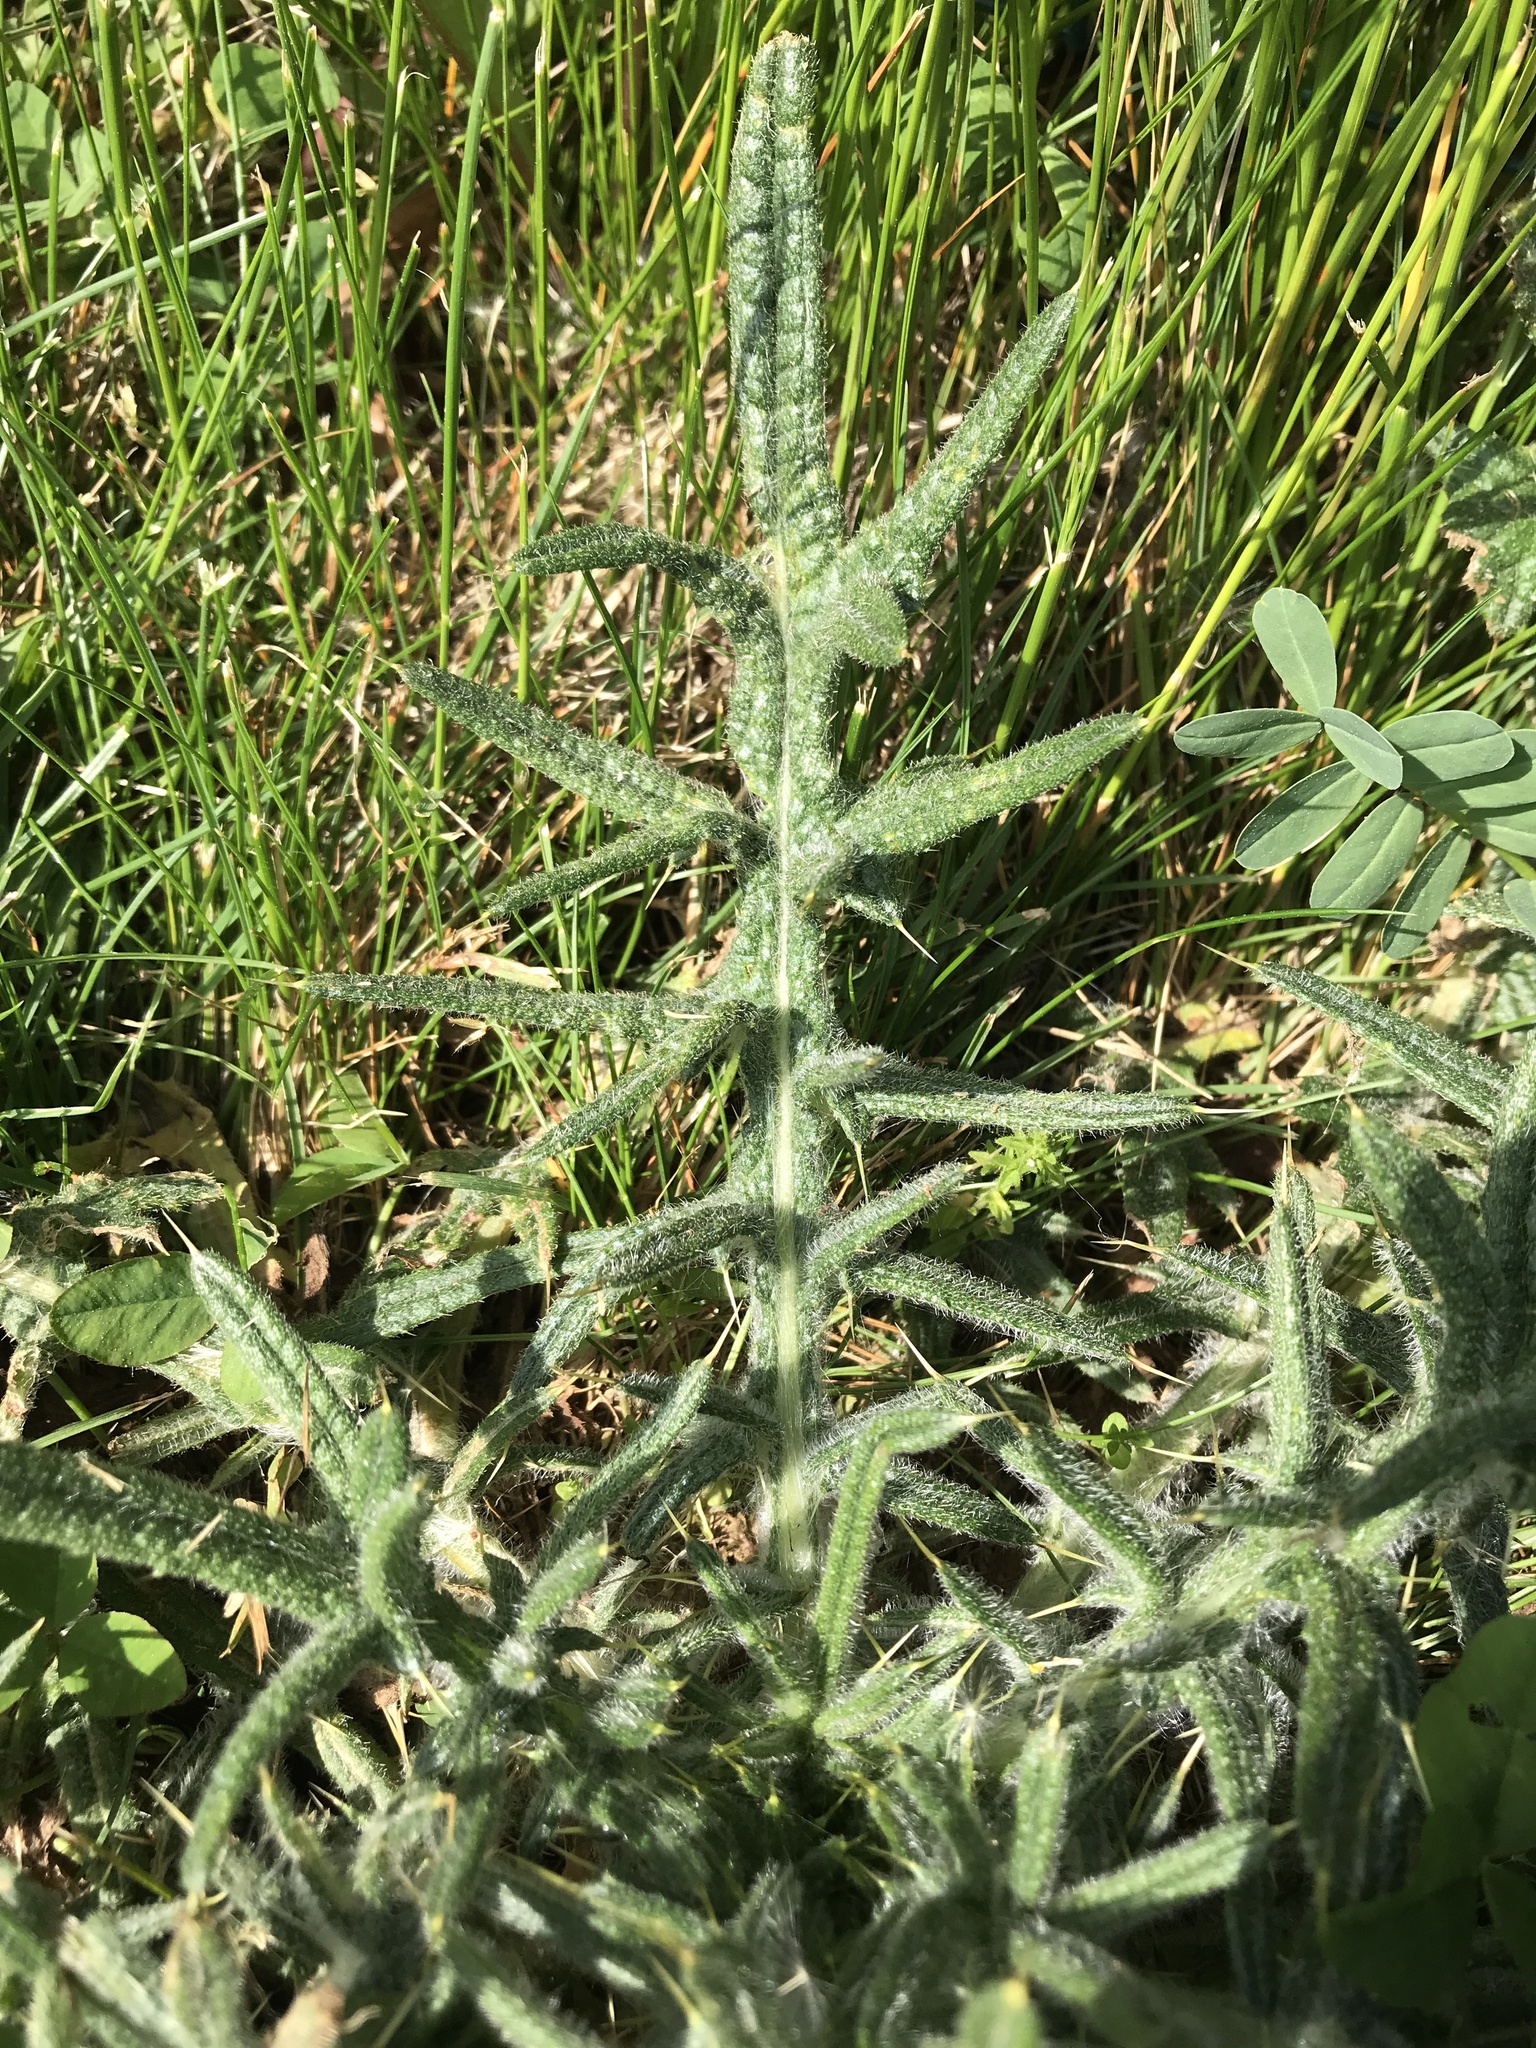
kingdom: Plantae
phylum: Tracheophyta
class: Magnoliopsida
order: Asterales
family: Asteraceae
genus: Cirsium
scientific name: Cirsium vulgare
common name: Bull thistle
